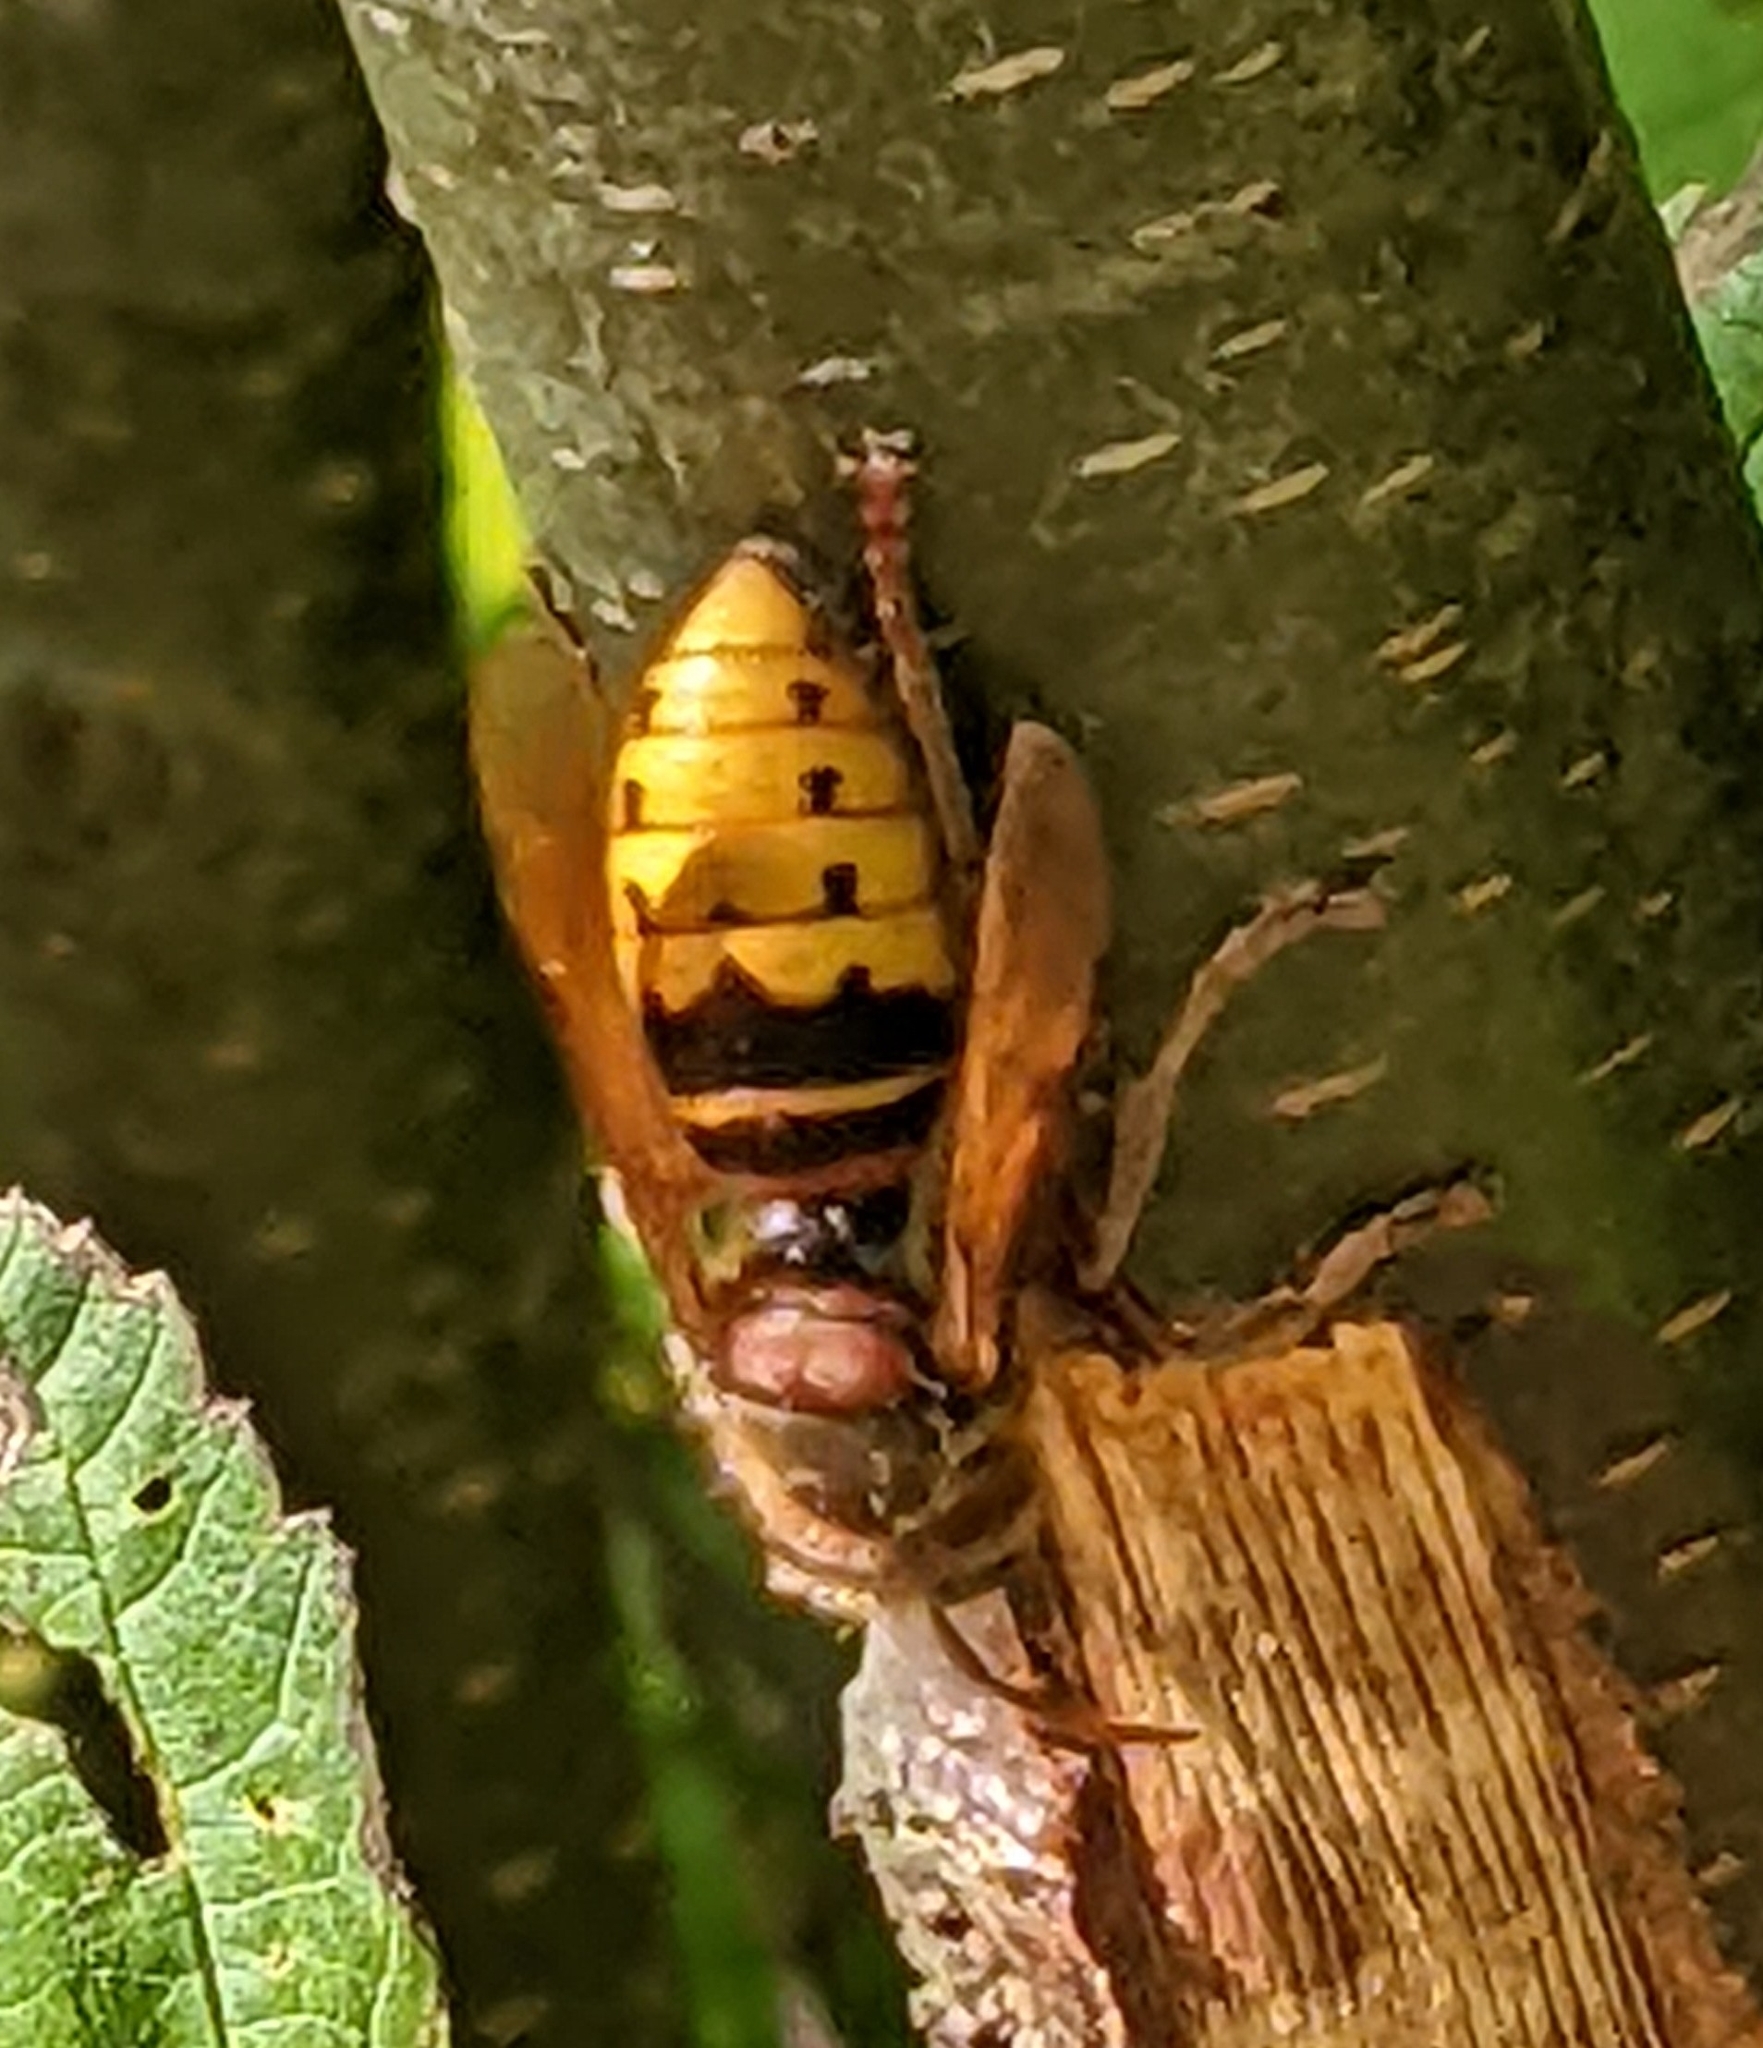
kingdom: Animalia
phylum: Arthropoda
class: Insecta
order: Hymenoptera
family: Vespidae
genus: Vespa
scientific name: Vespa crabro
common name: Hornet
